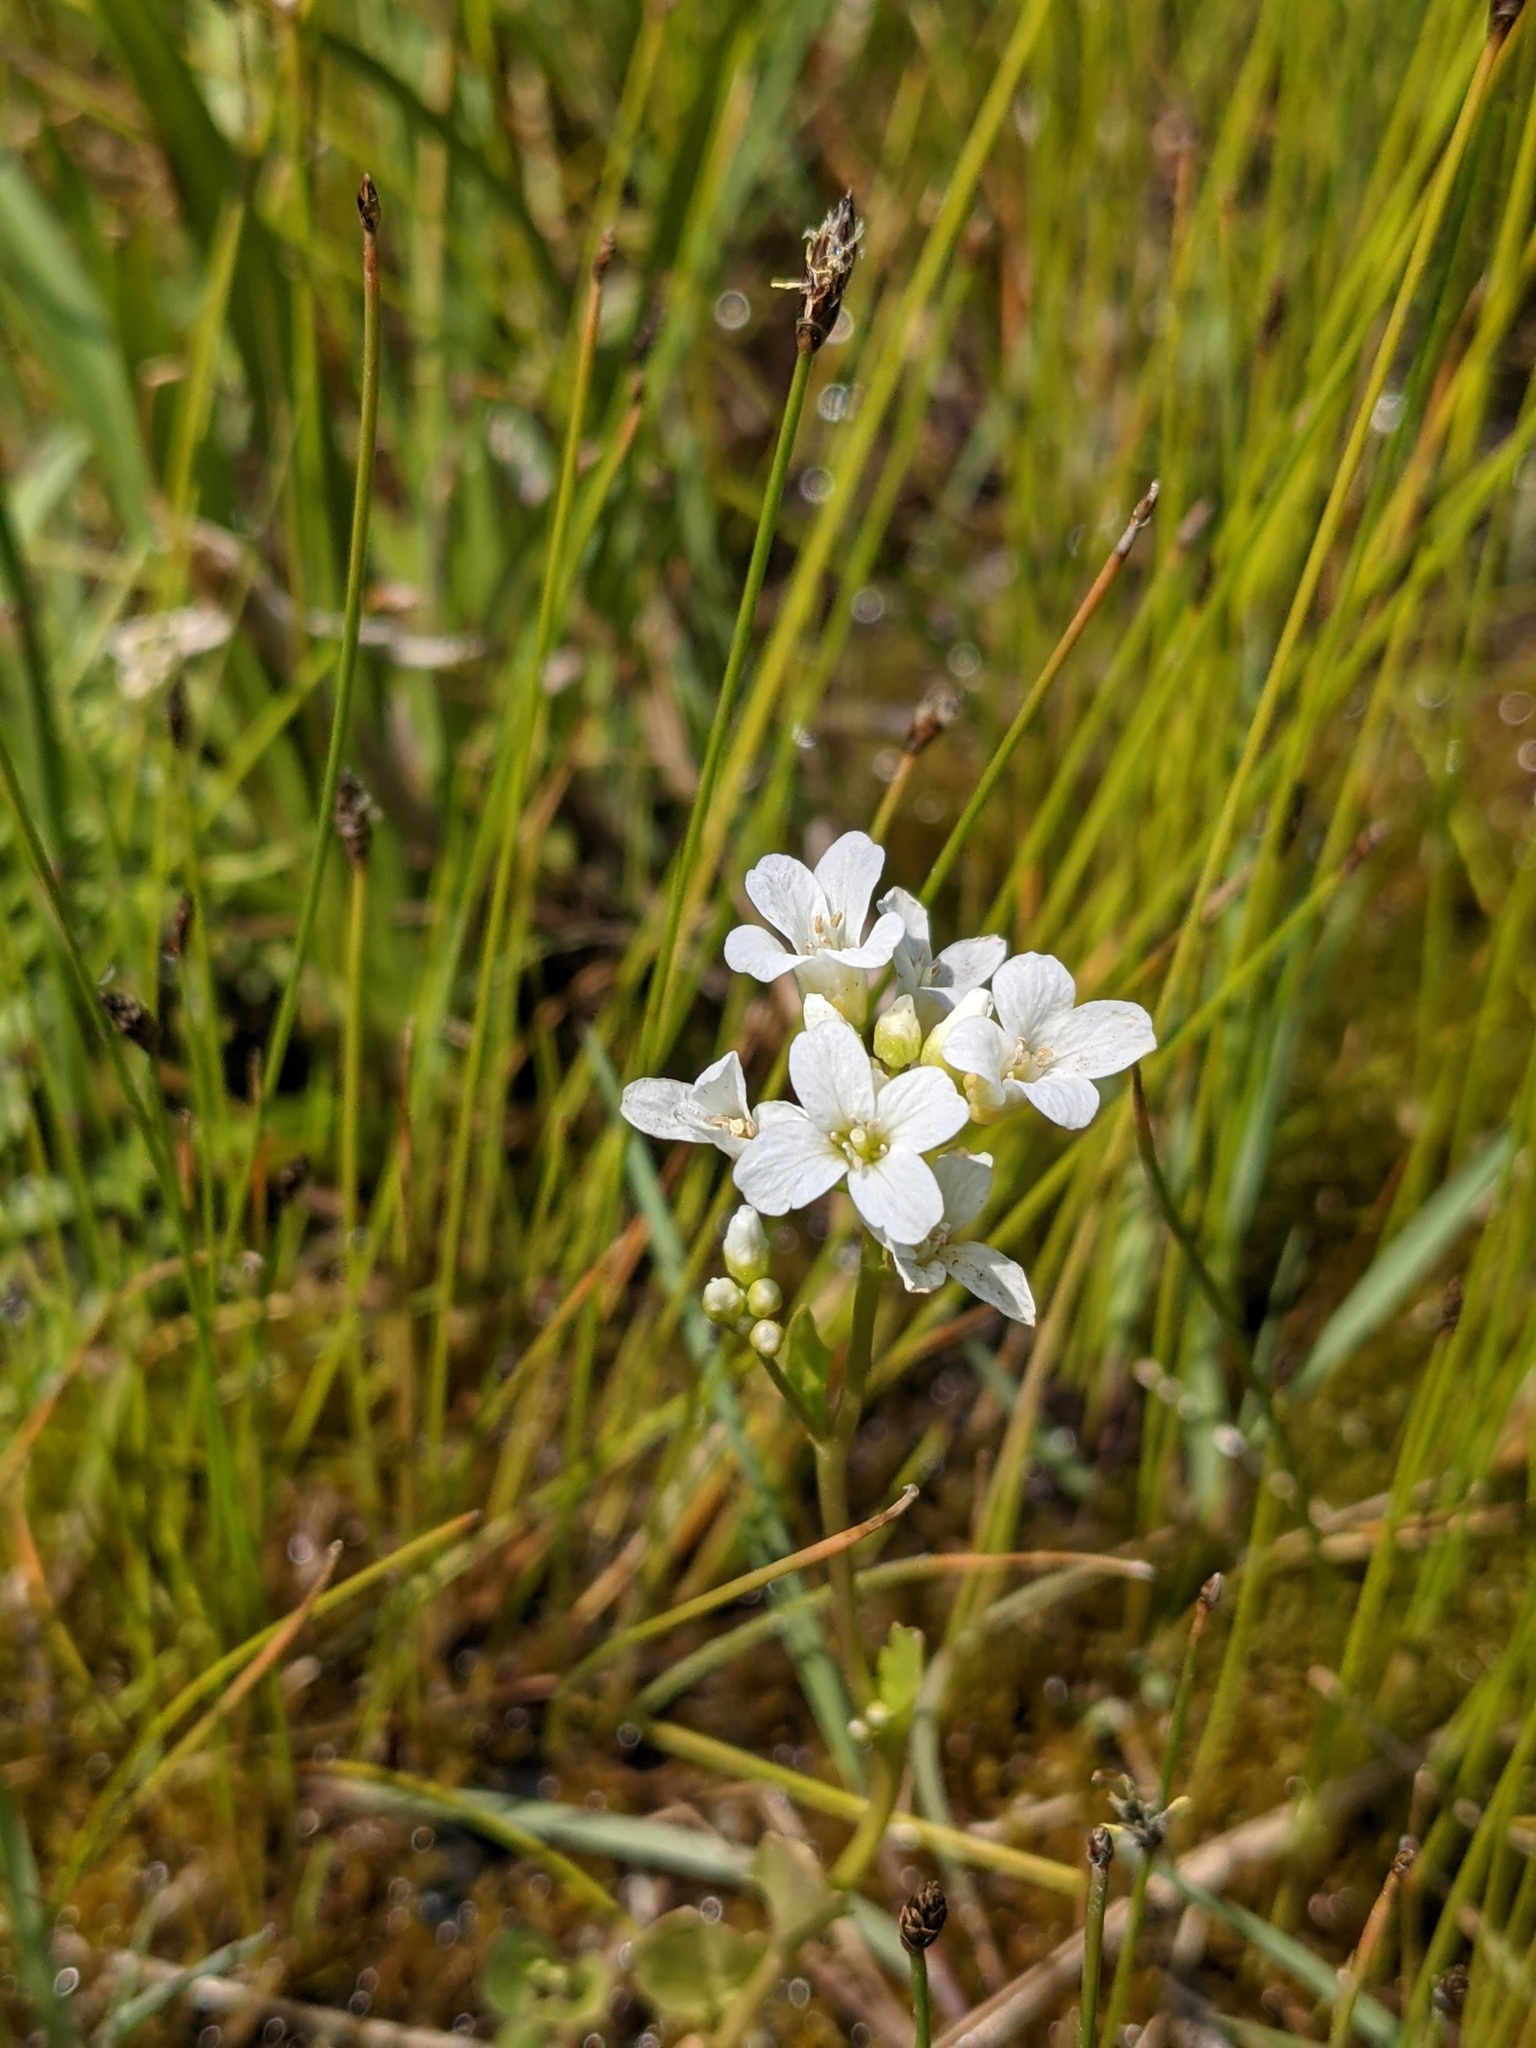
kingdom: Plantae
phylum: Tracheophyta
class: Magnoliopsida
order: Brassicales
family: Brassicaceae
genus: Cardamine
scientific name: Cardamine bulbosa
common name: Spring cress
